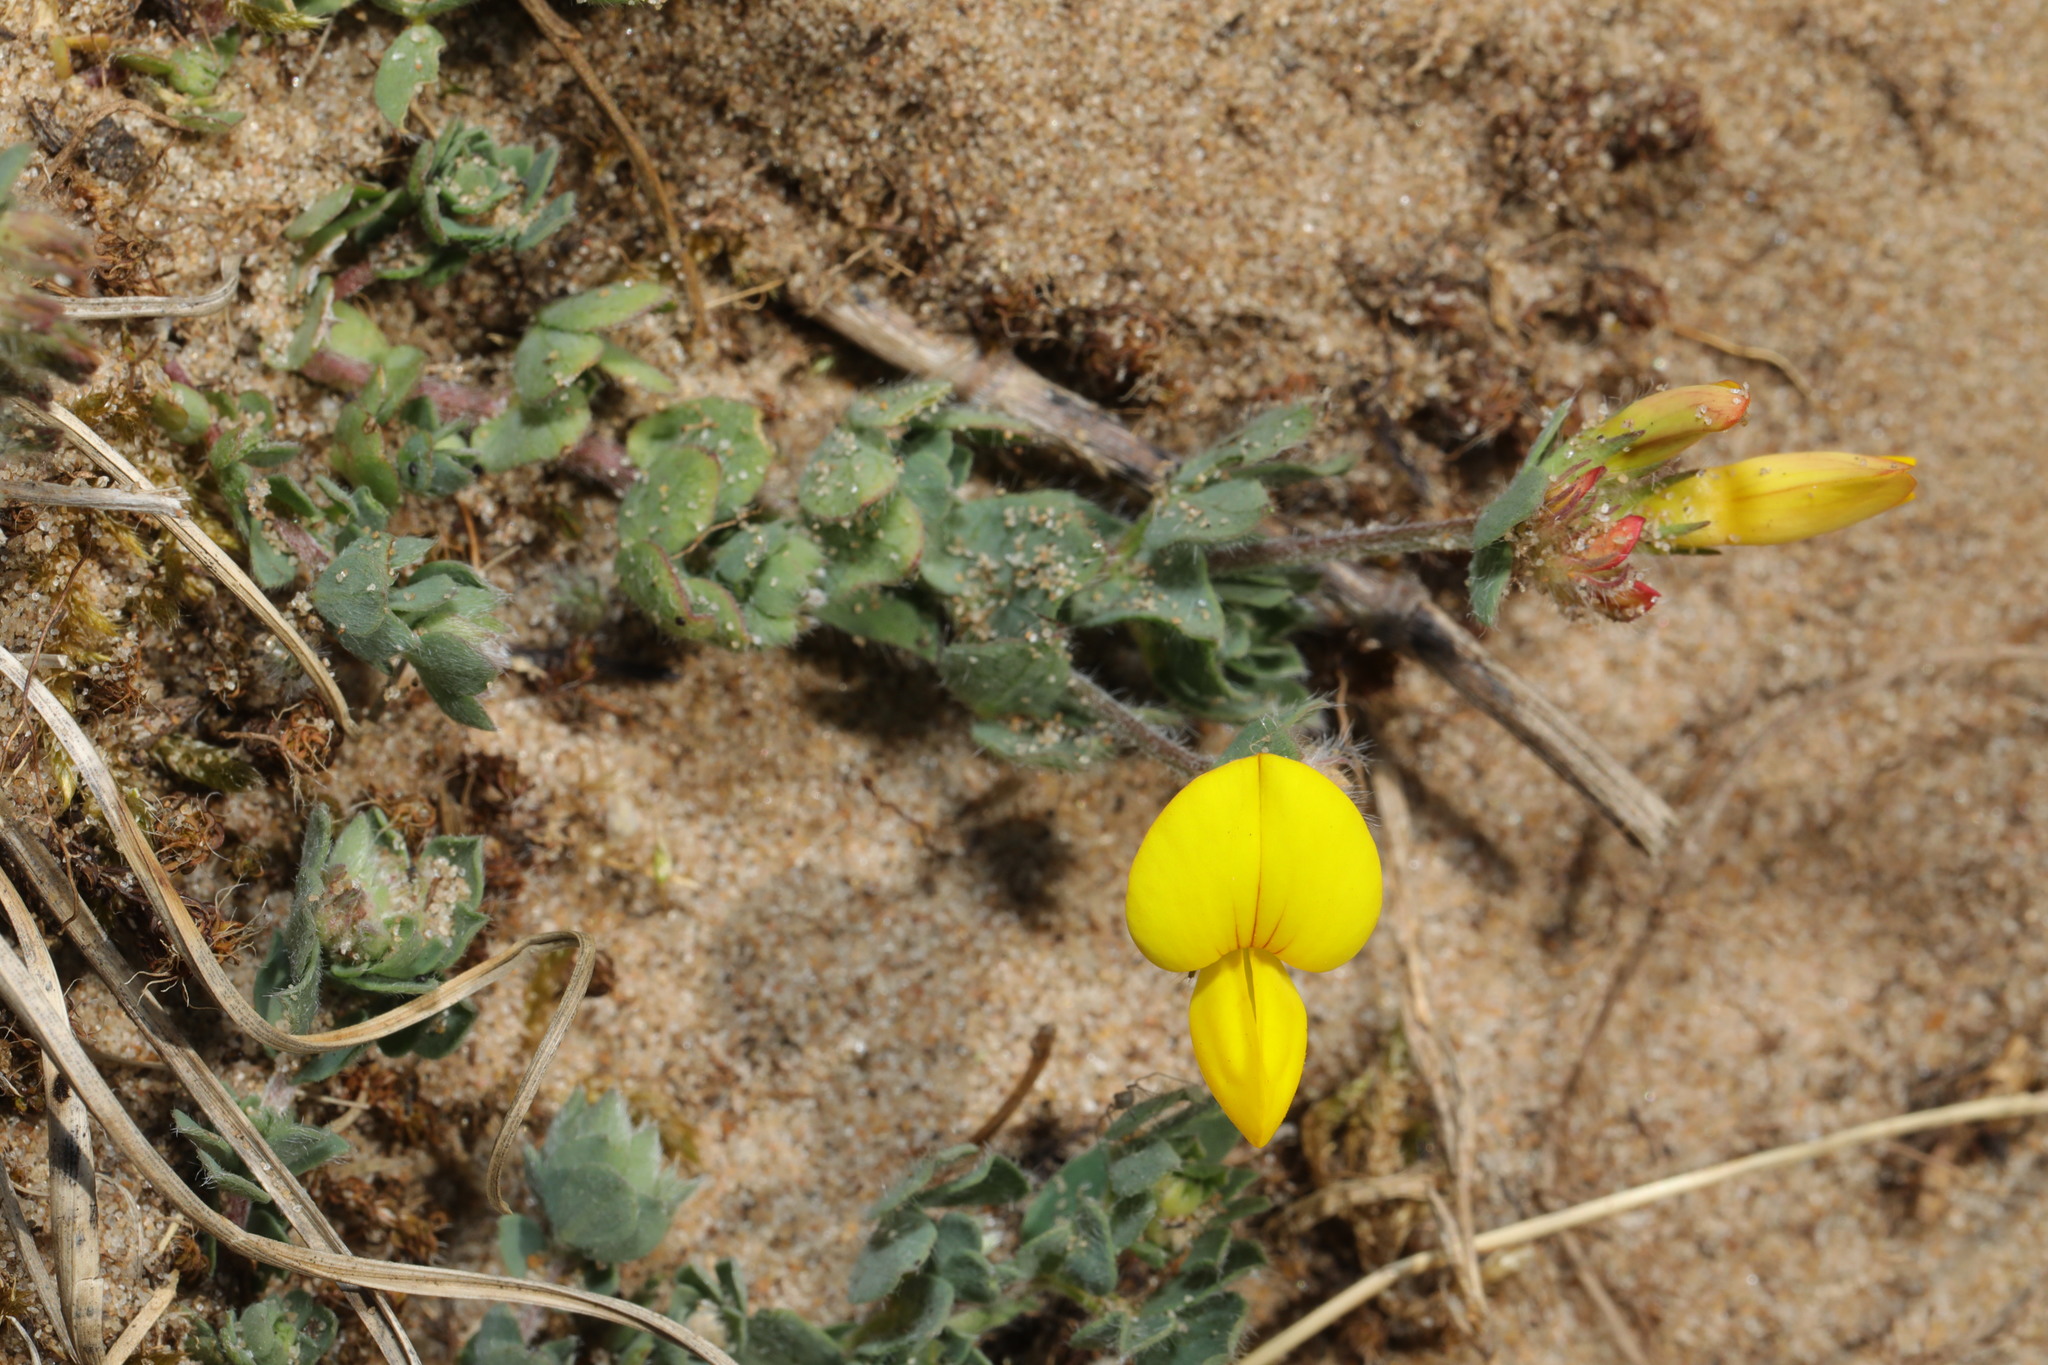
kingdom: Plantae
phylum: Tracheophyta
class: Magnoliopsida
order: Fabales
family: Fabaceae
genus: Lotus
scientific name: Lotus corniculatus
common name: Common bird's-foot-trefoil
